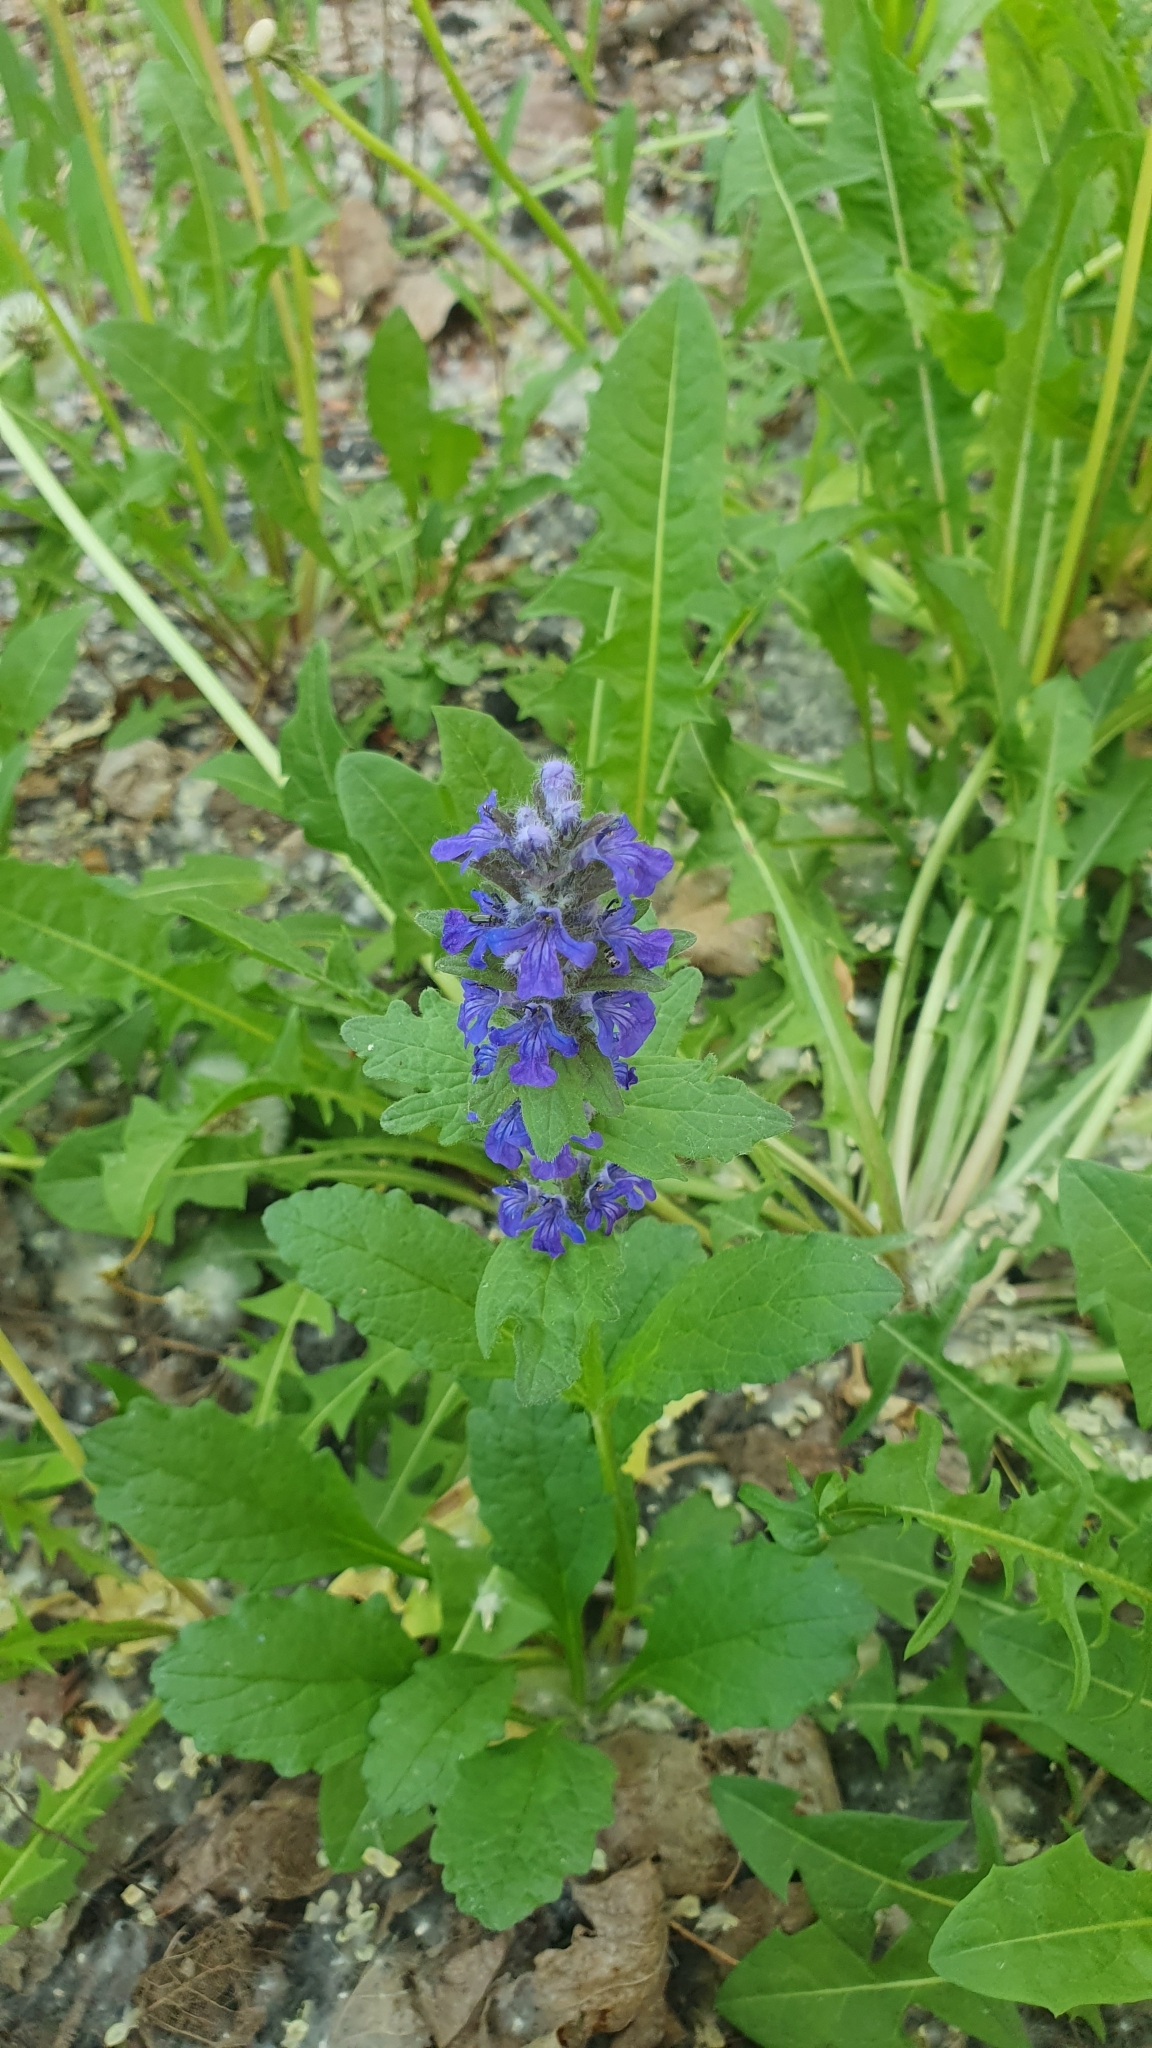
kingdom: Plantae
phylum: Tracheophyta
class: Magnoliopsida
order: Lamiales
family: Lamiaceae
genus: Ajuga
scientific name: Ajuga genevensis
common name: Blue bugle
